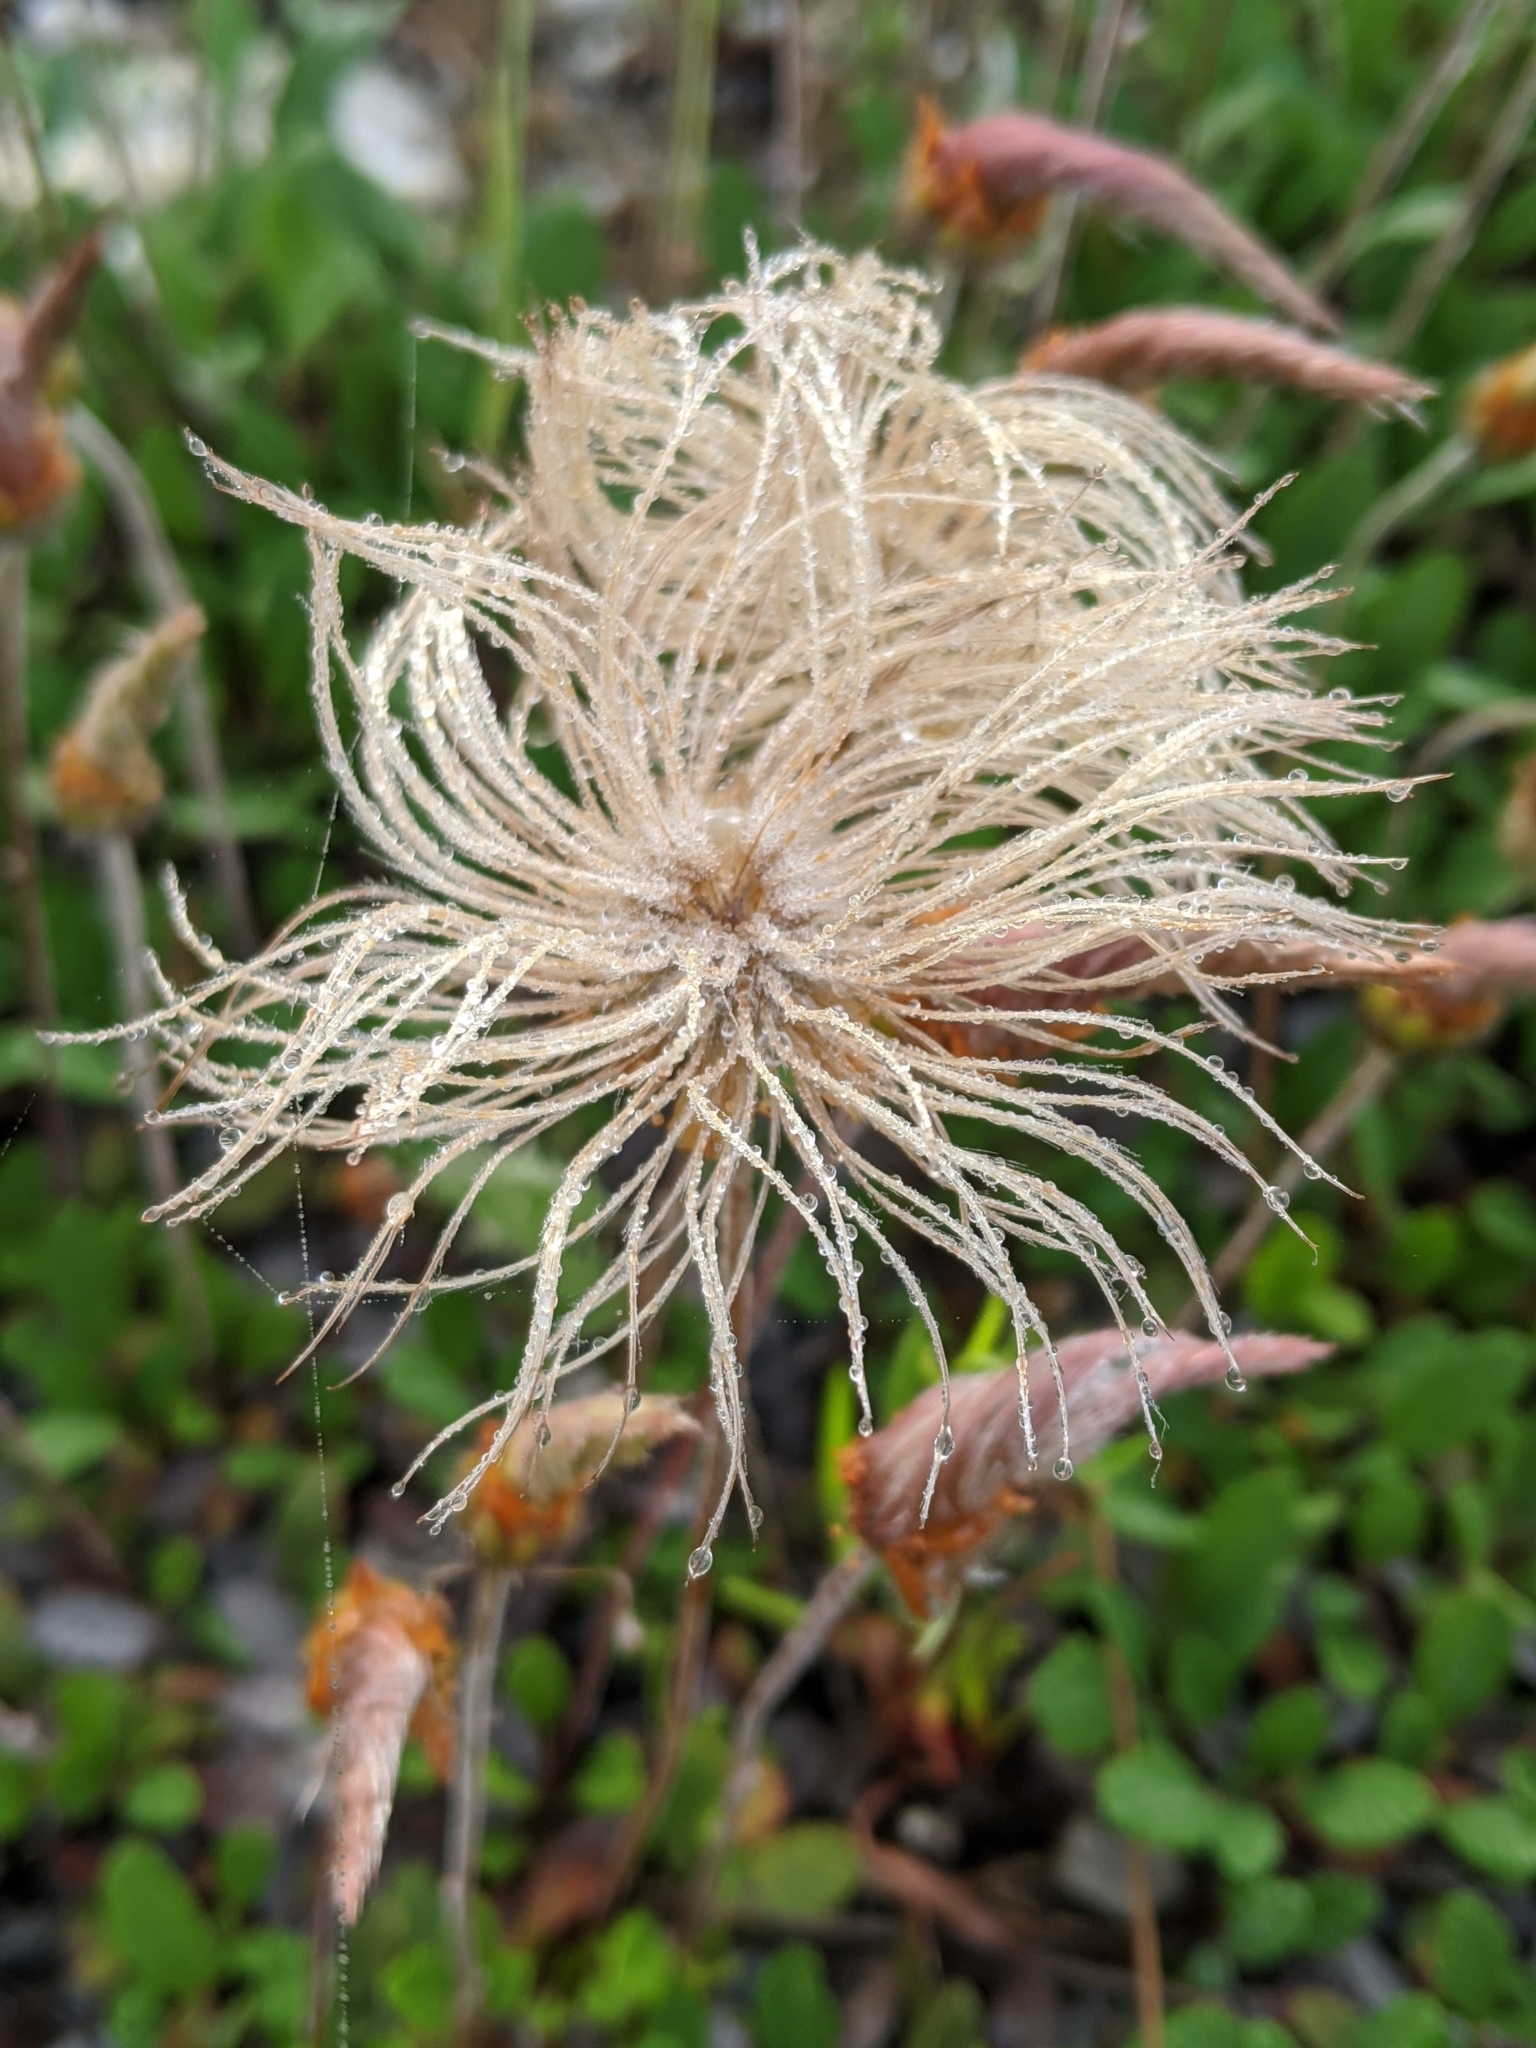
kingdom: Plantae
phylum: Tracheophyta
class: Magnoliopsida
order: Rosales
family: Rosaceae
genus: Dryas
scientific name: Dryas drummondii
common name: Drummond's dryad
